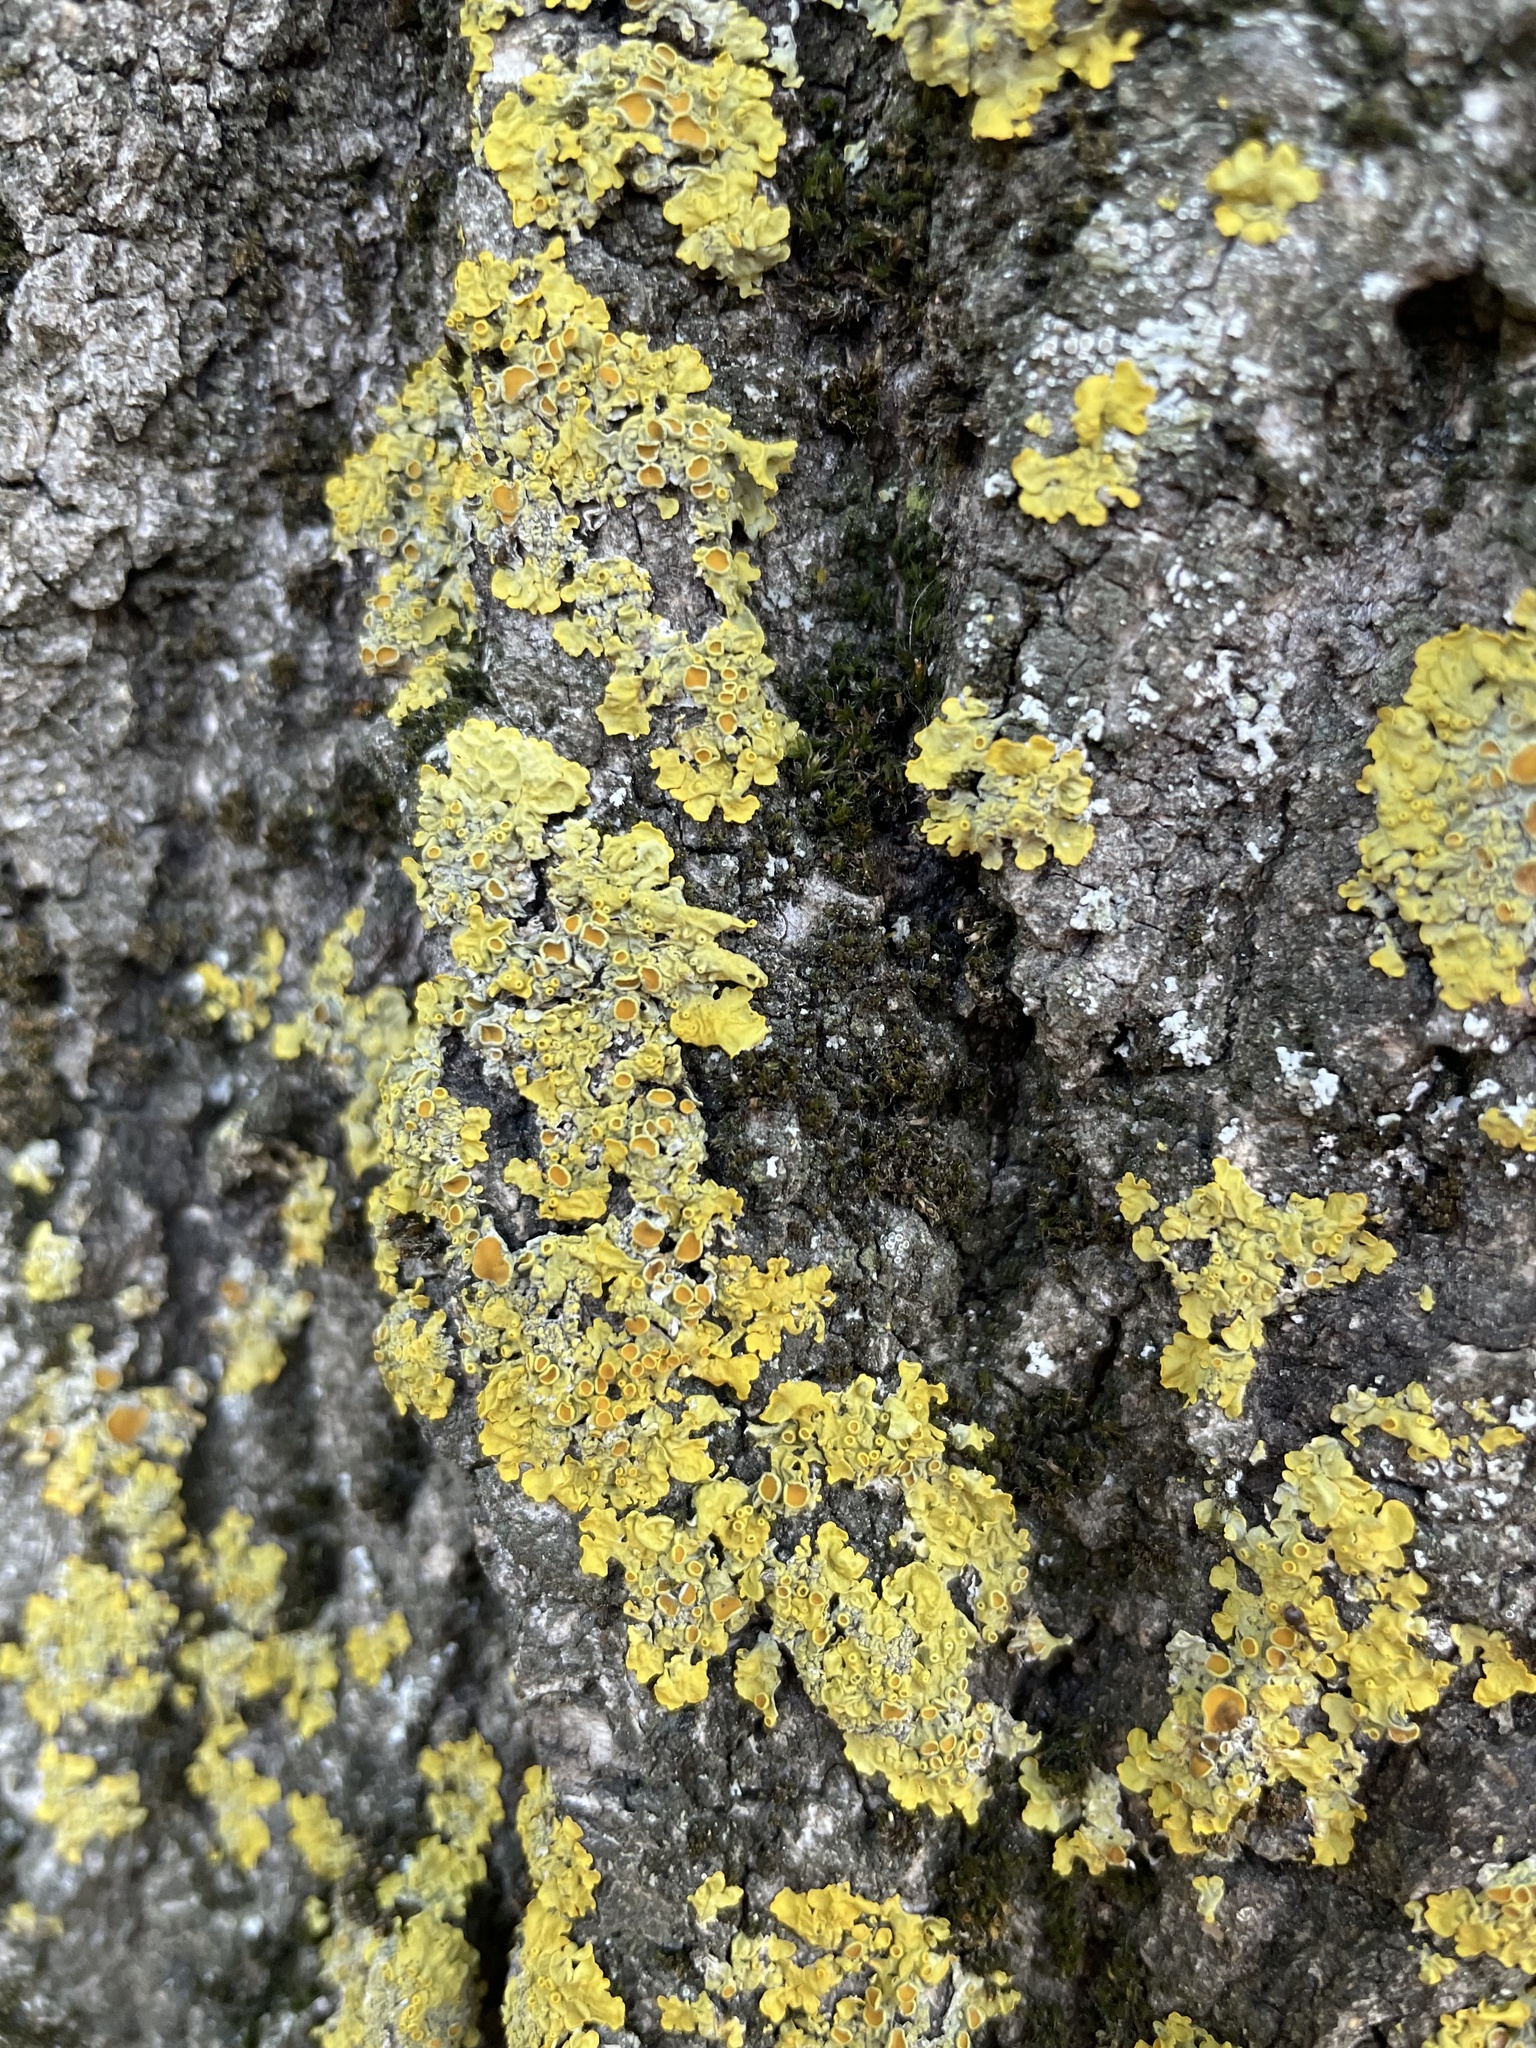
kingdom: Fungi
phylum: Ascomycota
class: Lecanoromycetes
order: Teloschistales
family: Teloschistaceae
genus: Xanthoria
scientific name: Xanthoria parietina
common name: Common orange lichen
